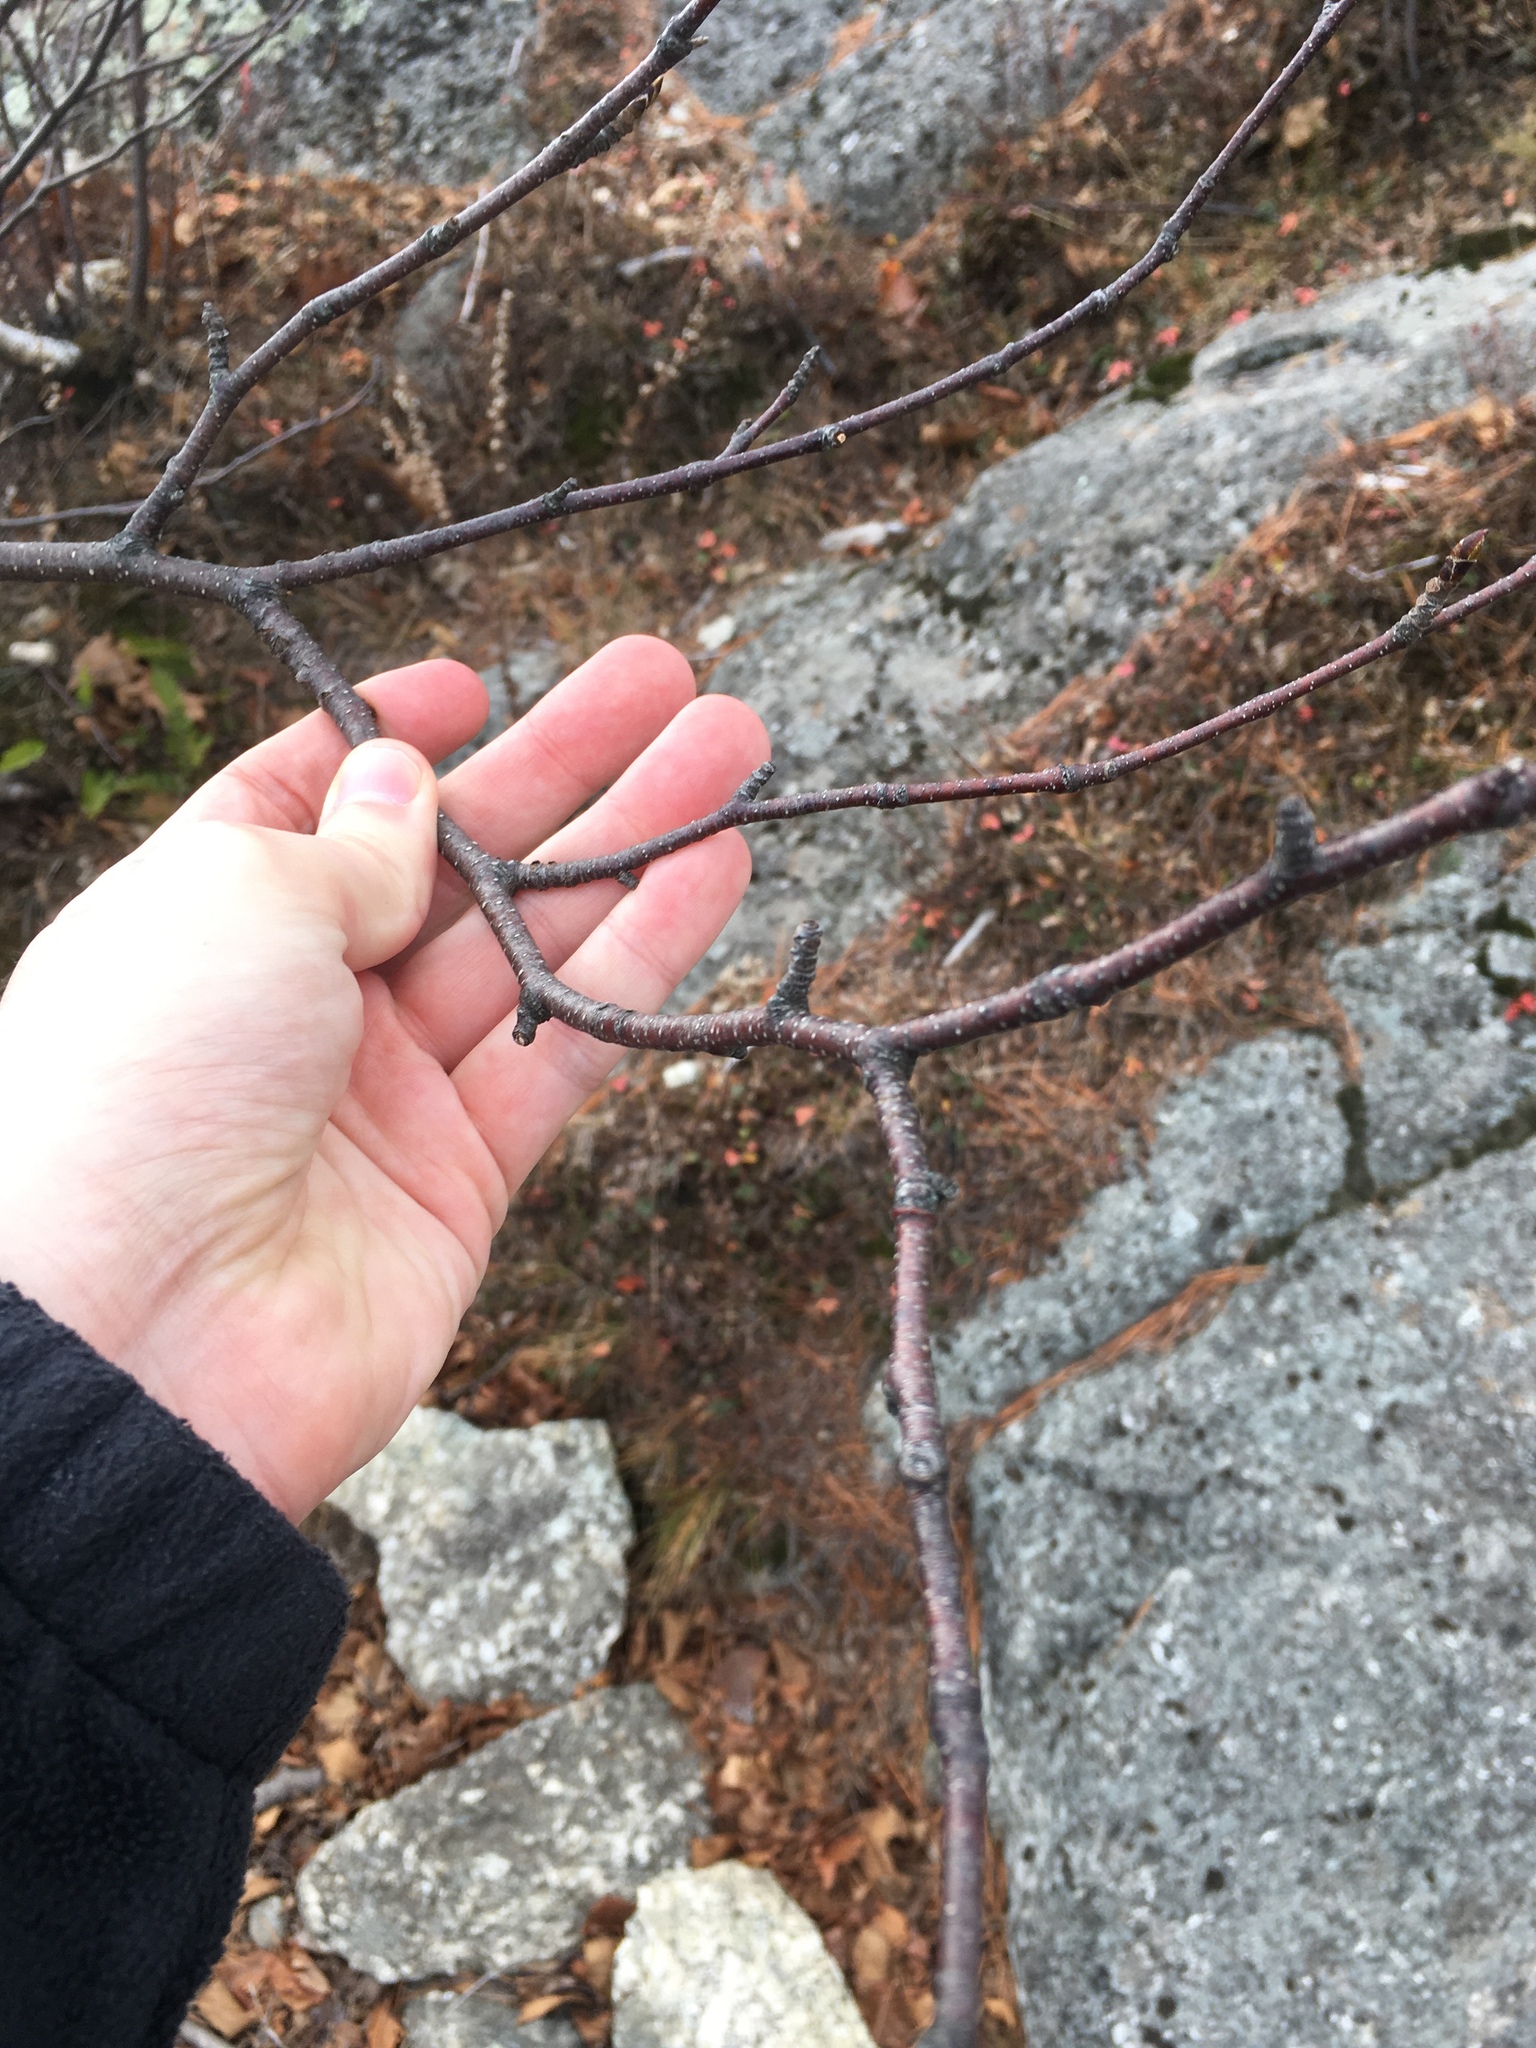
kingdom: Plantae
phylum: Tracheophyta
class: Magnoliopsida
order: Fagales
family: Betulaceae
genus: Betula
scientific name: Betula papyrifera
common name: Paper birch
